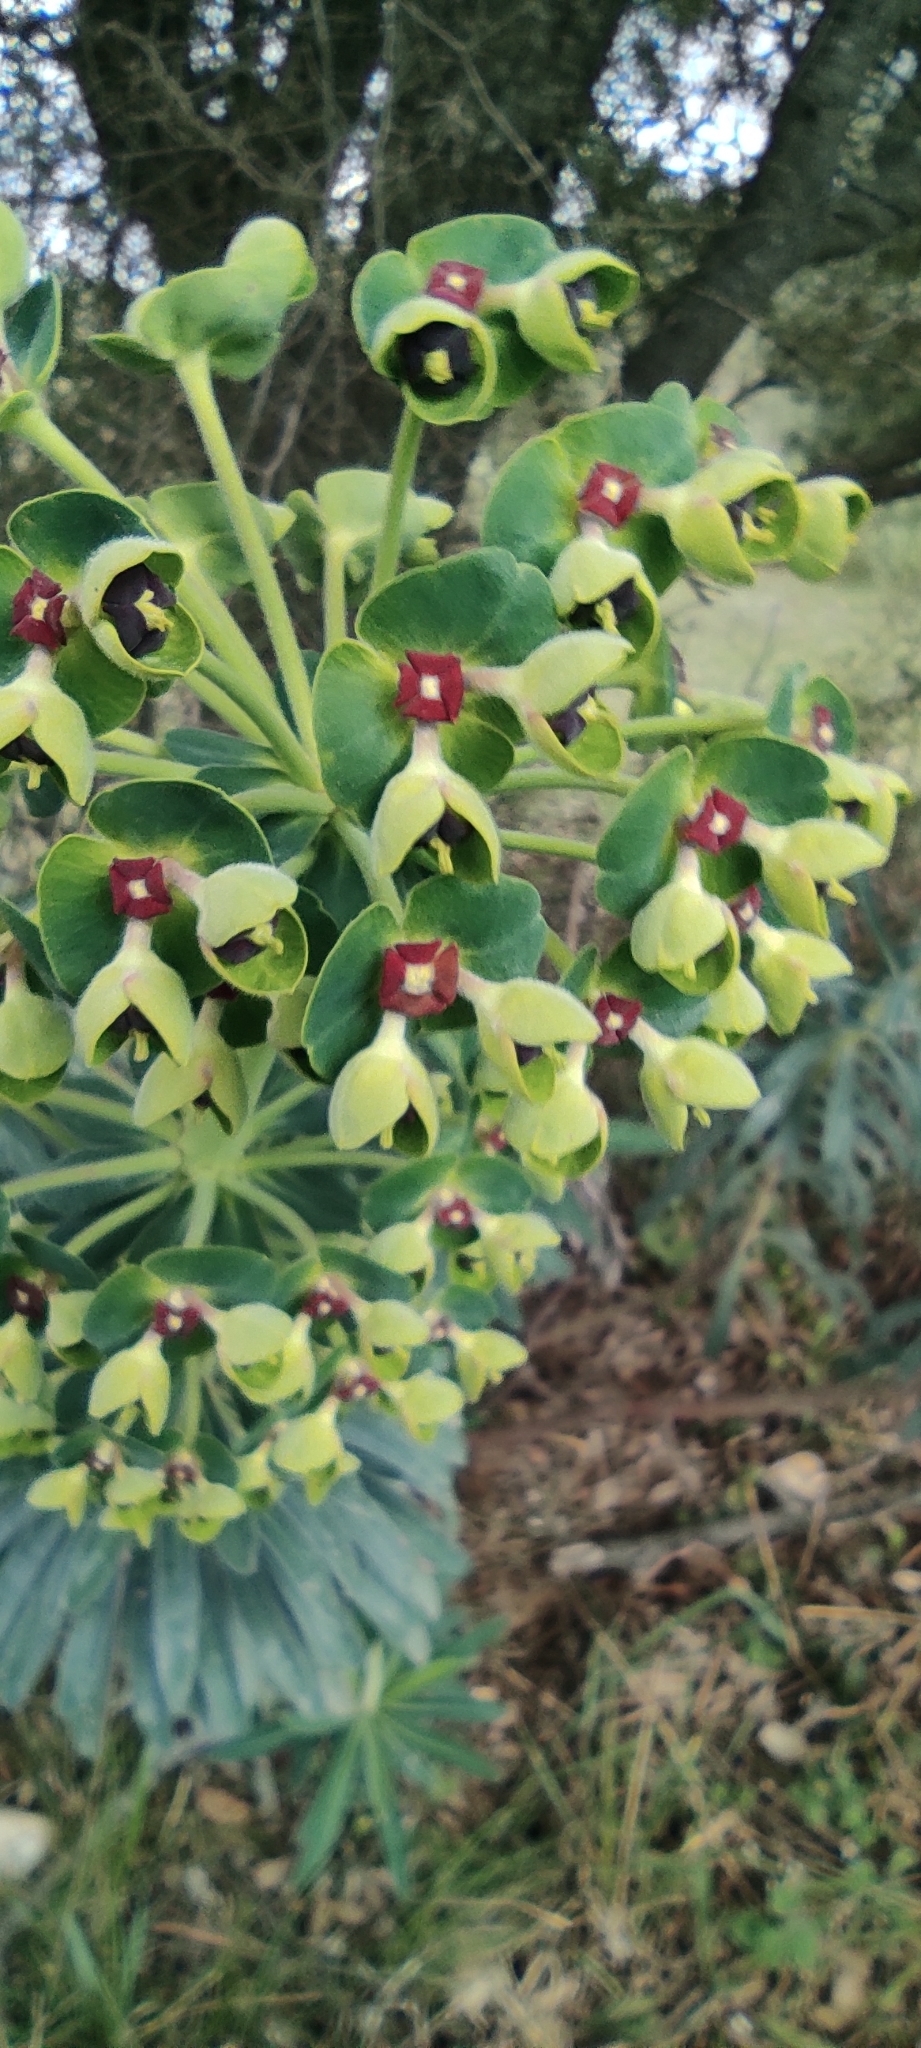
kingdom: Plantae
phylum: Tracheophyta
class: Magnoliopsida
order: Malpighiales
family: Euphorbiaceae
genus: Euphorbia
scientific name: Euphorbia characias
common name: Mediterranean spurge
